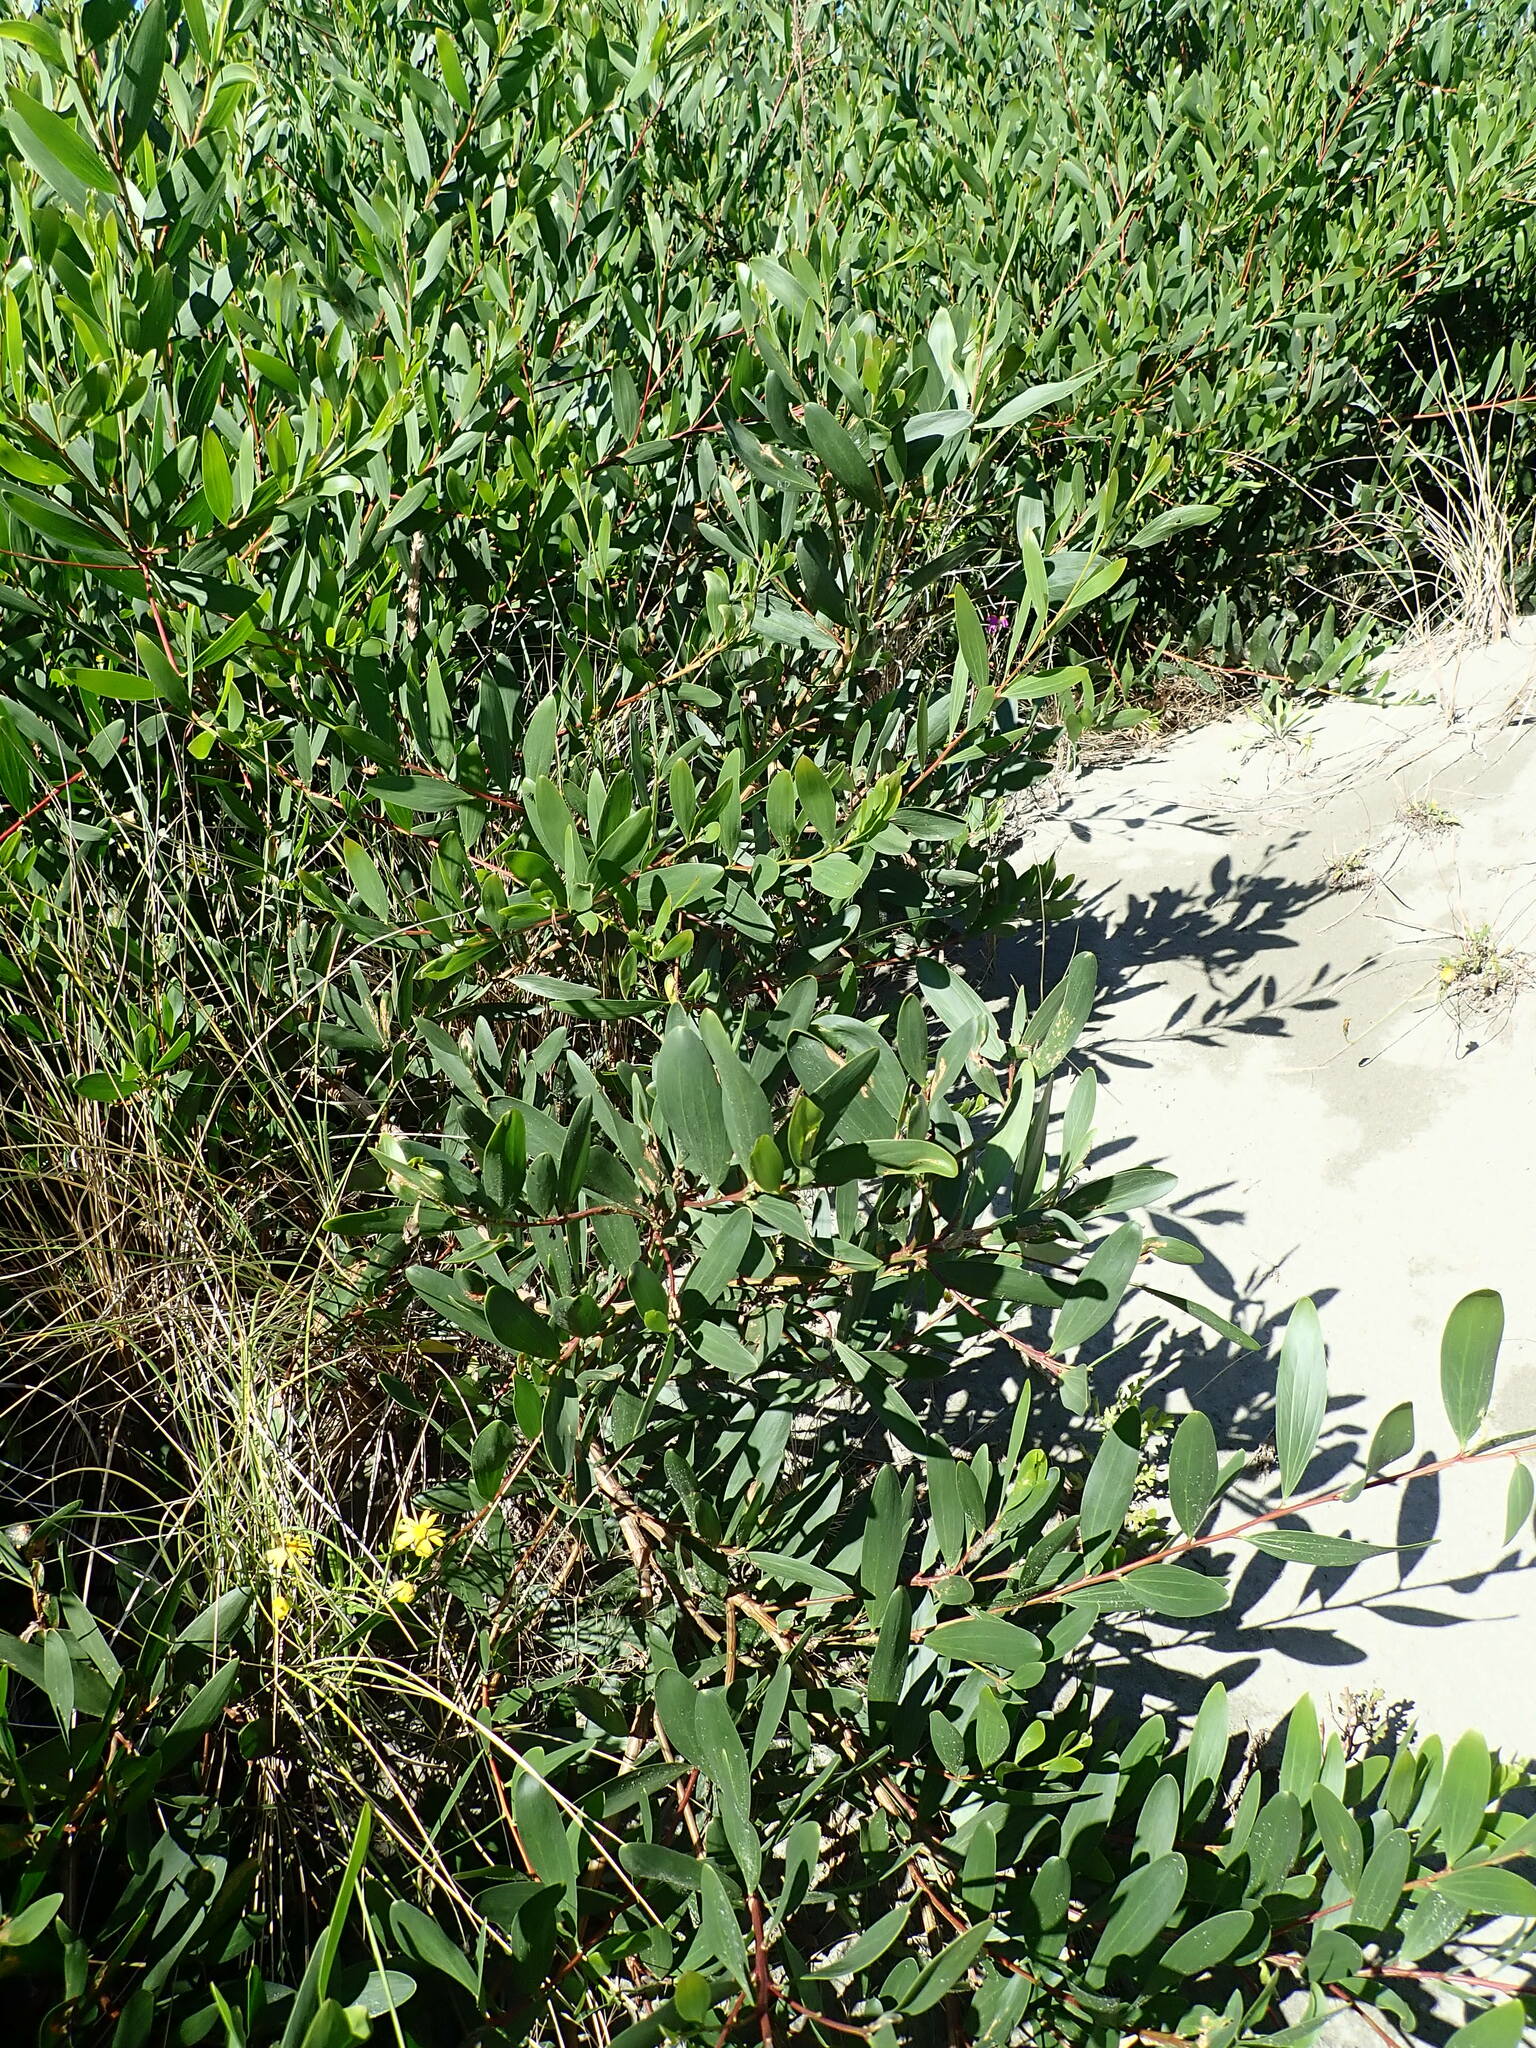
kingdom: Plantae
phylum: Tracheophyta
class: Magnoliopsida
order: Fabales
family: Fabaceae
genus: Acacia
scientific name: Acacia longifolia
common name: Sydney golden wattle
